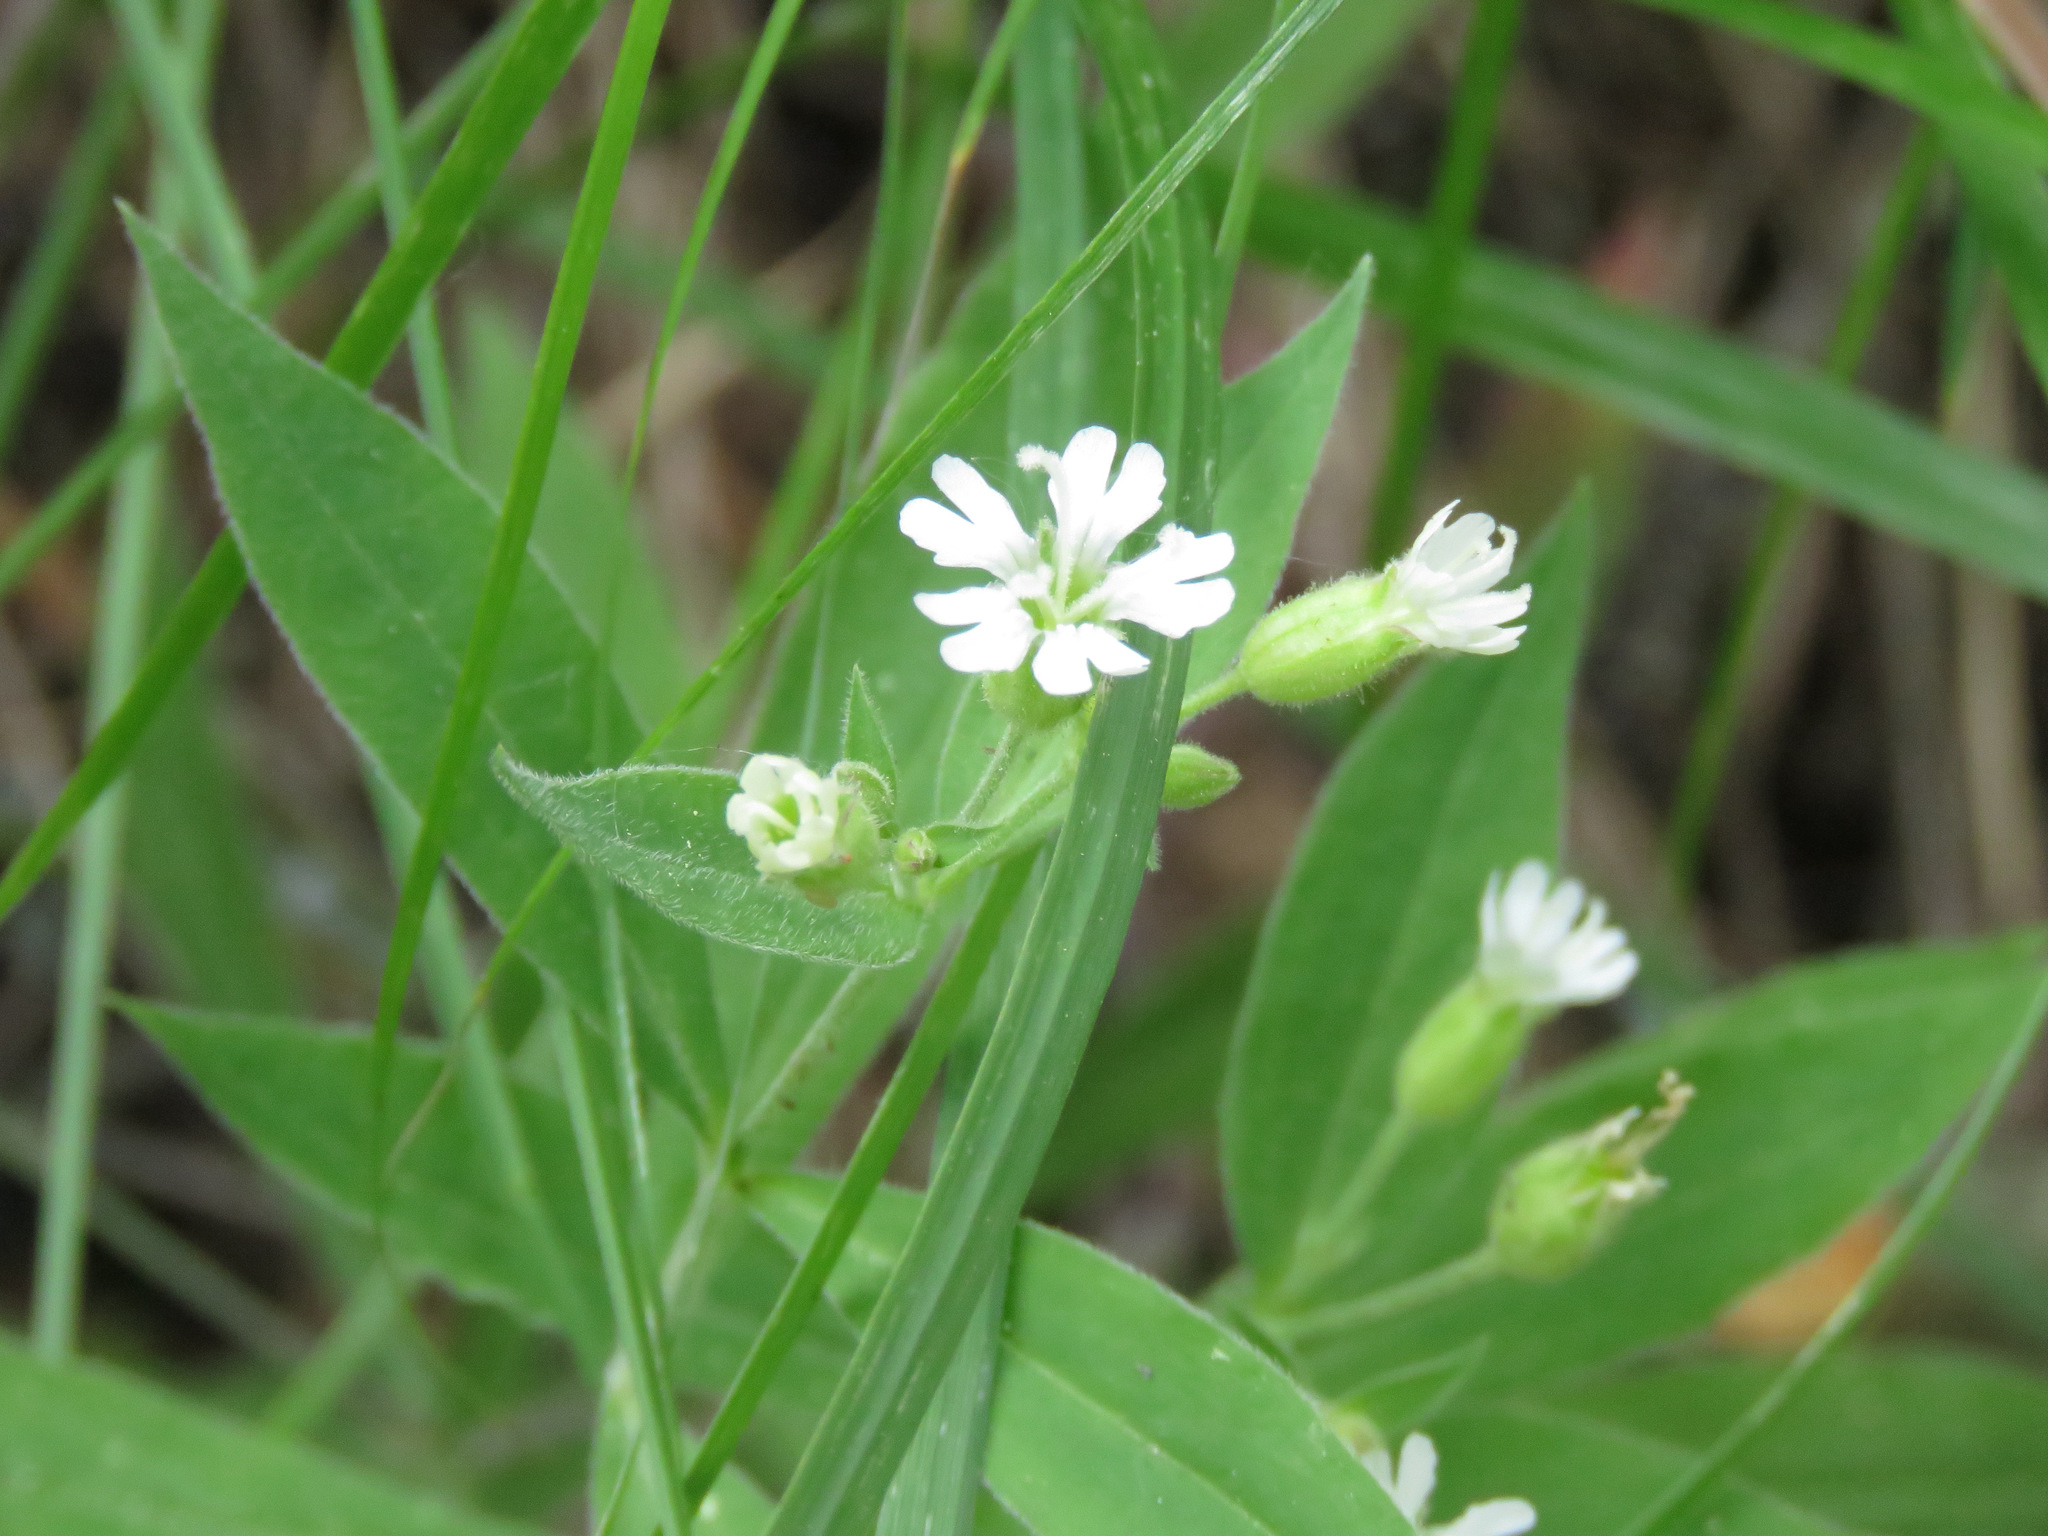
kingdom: Plantae
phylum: Tracheophyta
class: Magnoliopsida
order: Caryophyllales
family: Caryophyllaceae
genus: Silene
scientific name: Silene menziesii
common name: Menzies's catchfly
